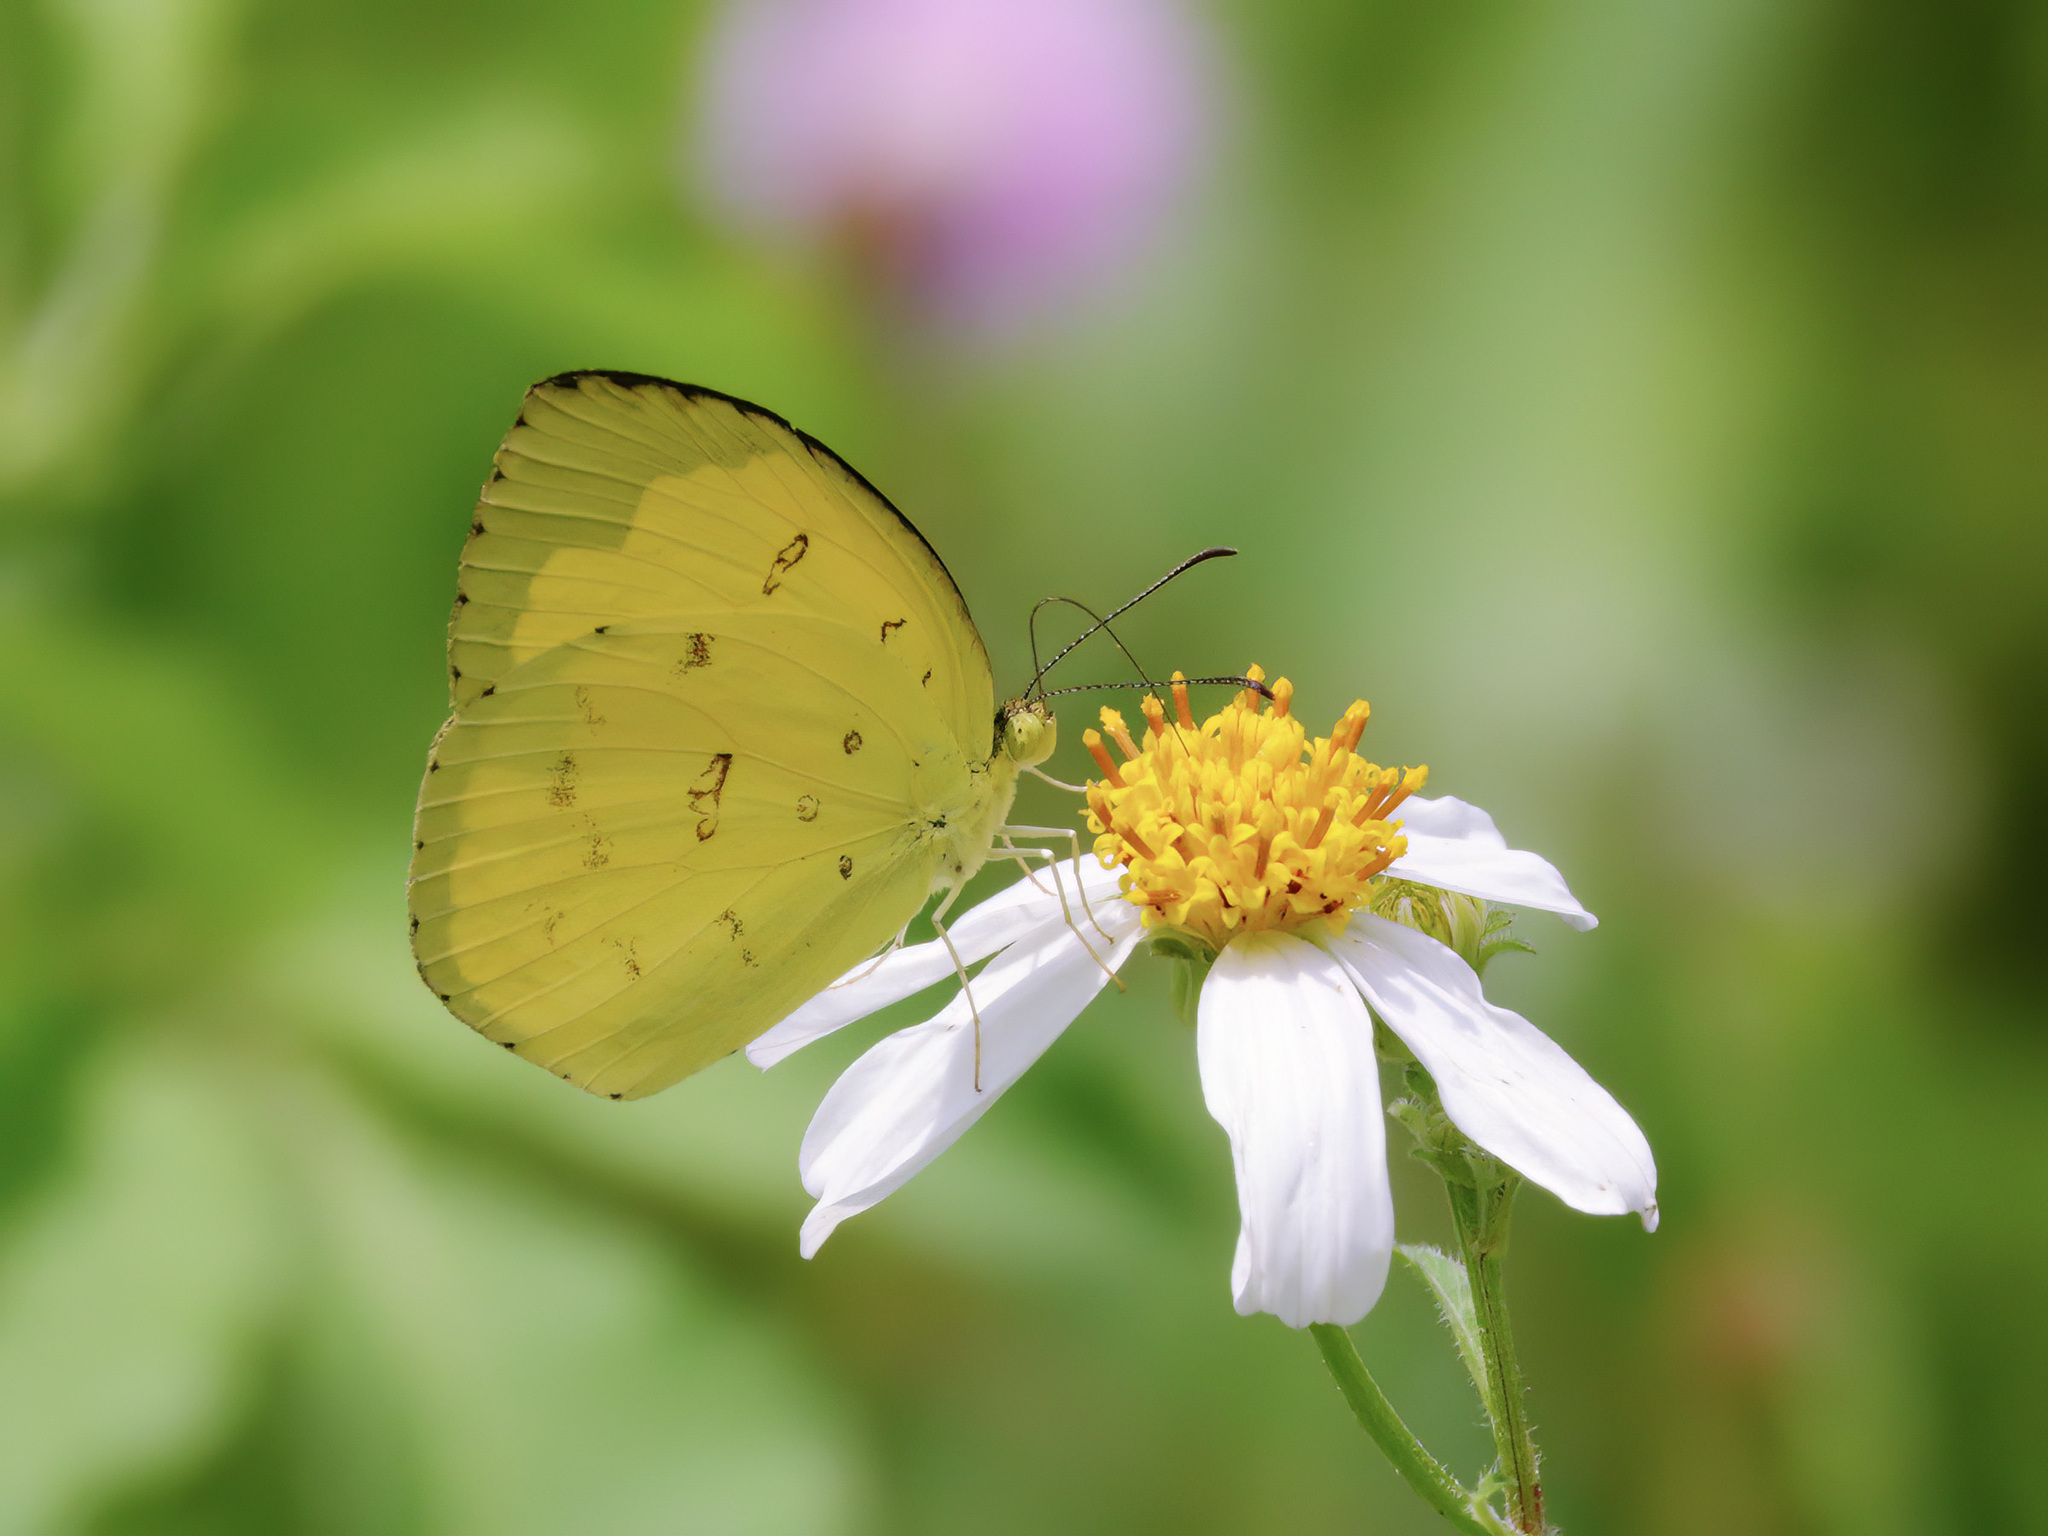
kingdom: Animalia
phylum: Arthropoda
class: Insecta
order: Lepidoptera
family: Pieridae
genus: Eurema
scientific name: Eurema hecabe
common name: Pale grass yellow
